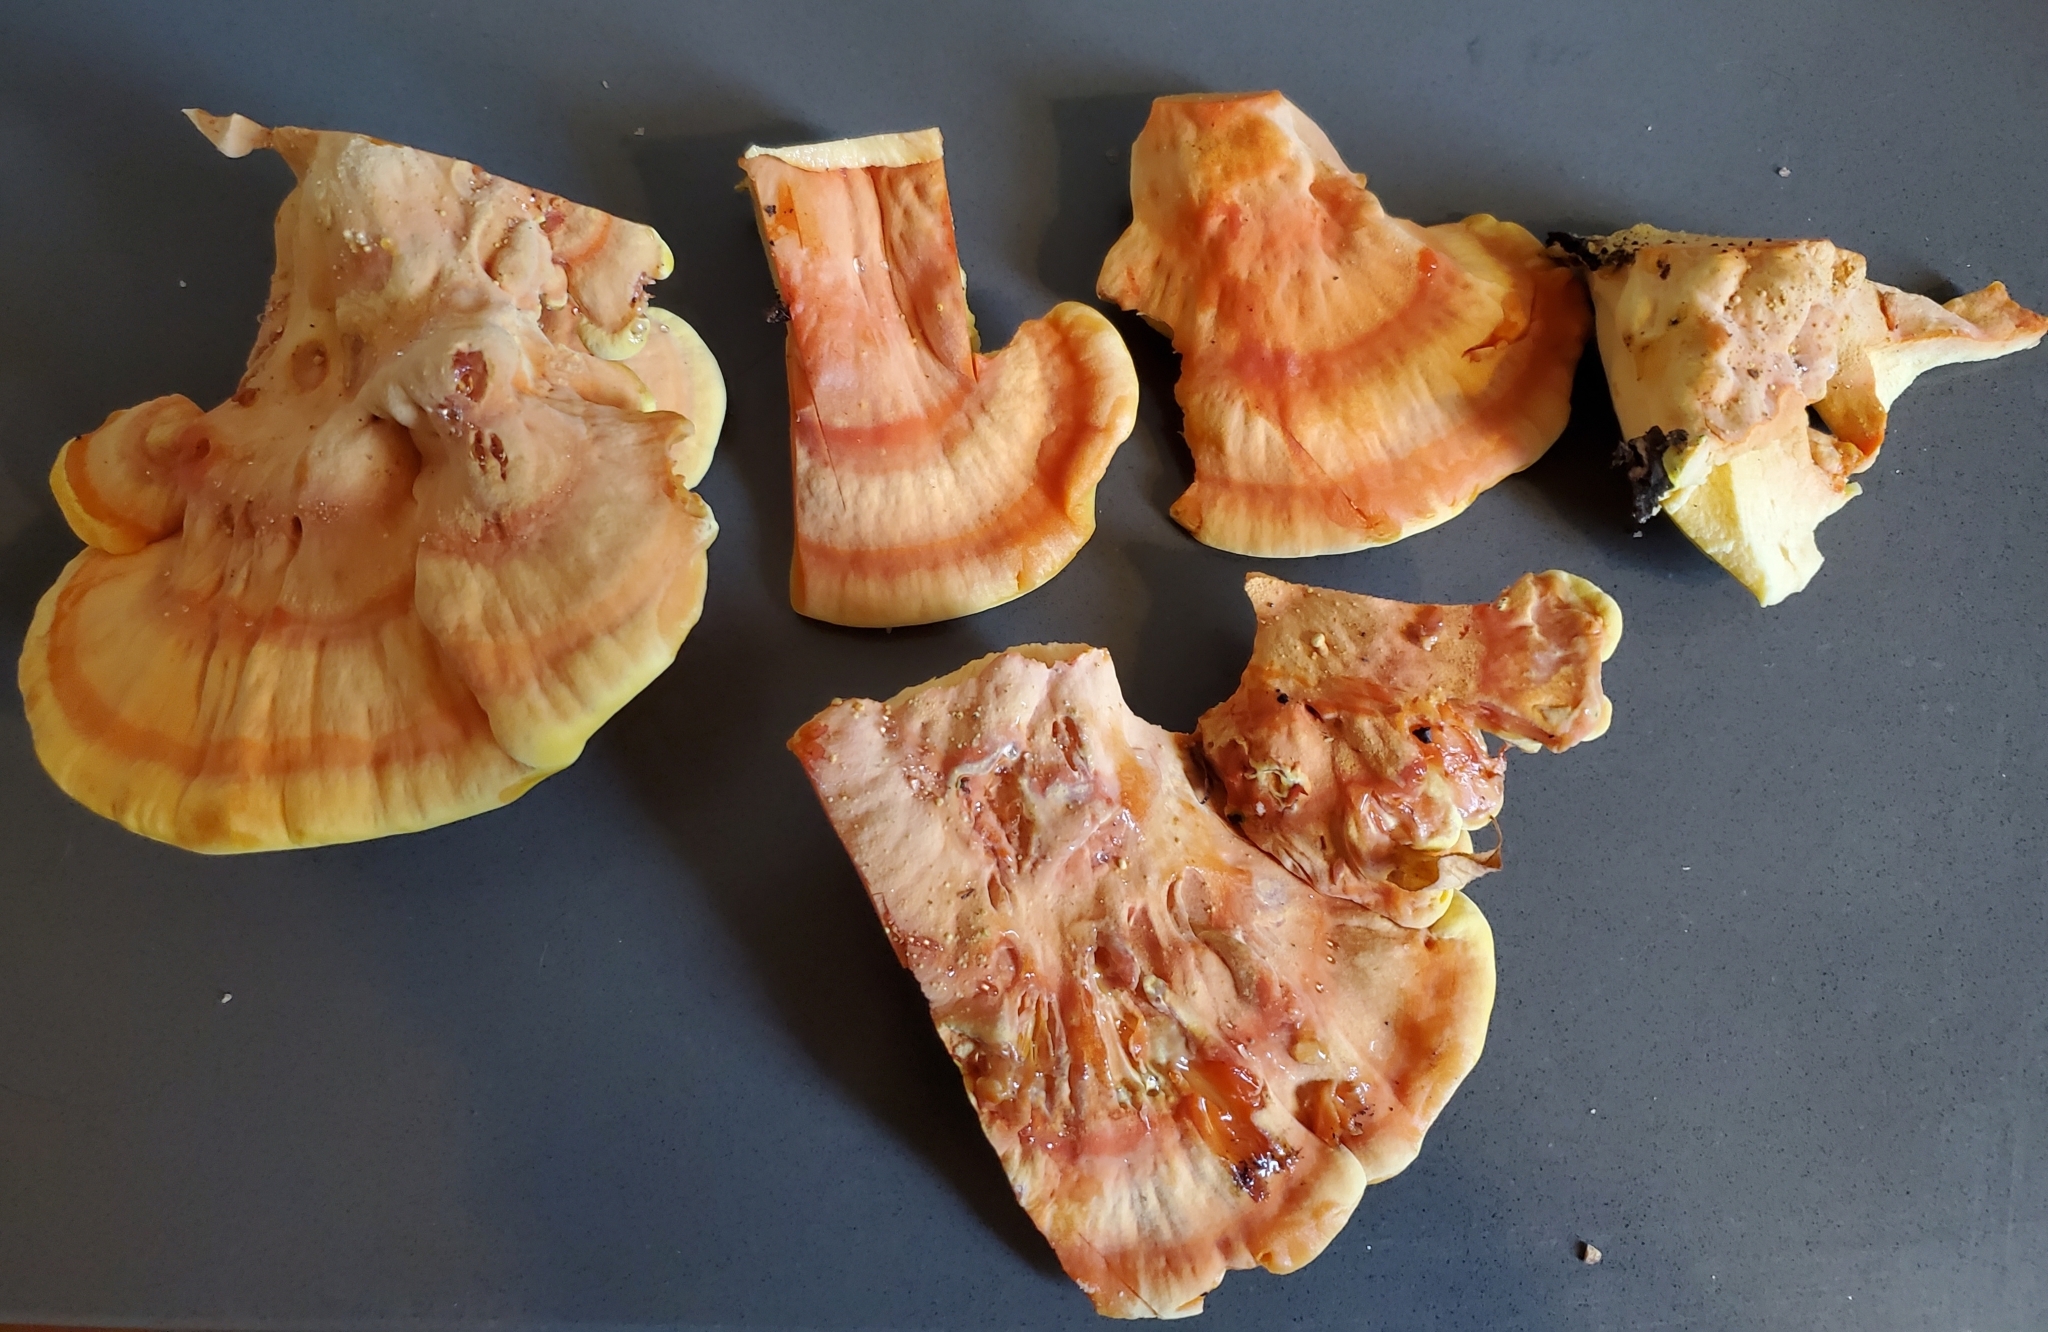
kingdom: Fungi
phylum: Basidiomycota
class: Agaricomycetes
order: Polyporales
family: Laetiporaceae
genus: Laetiporus
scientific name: Laetiporus gilbertsonii
